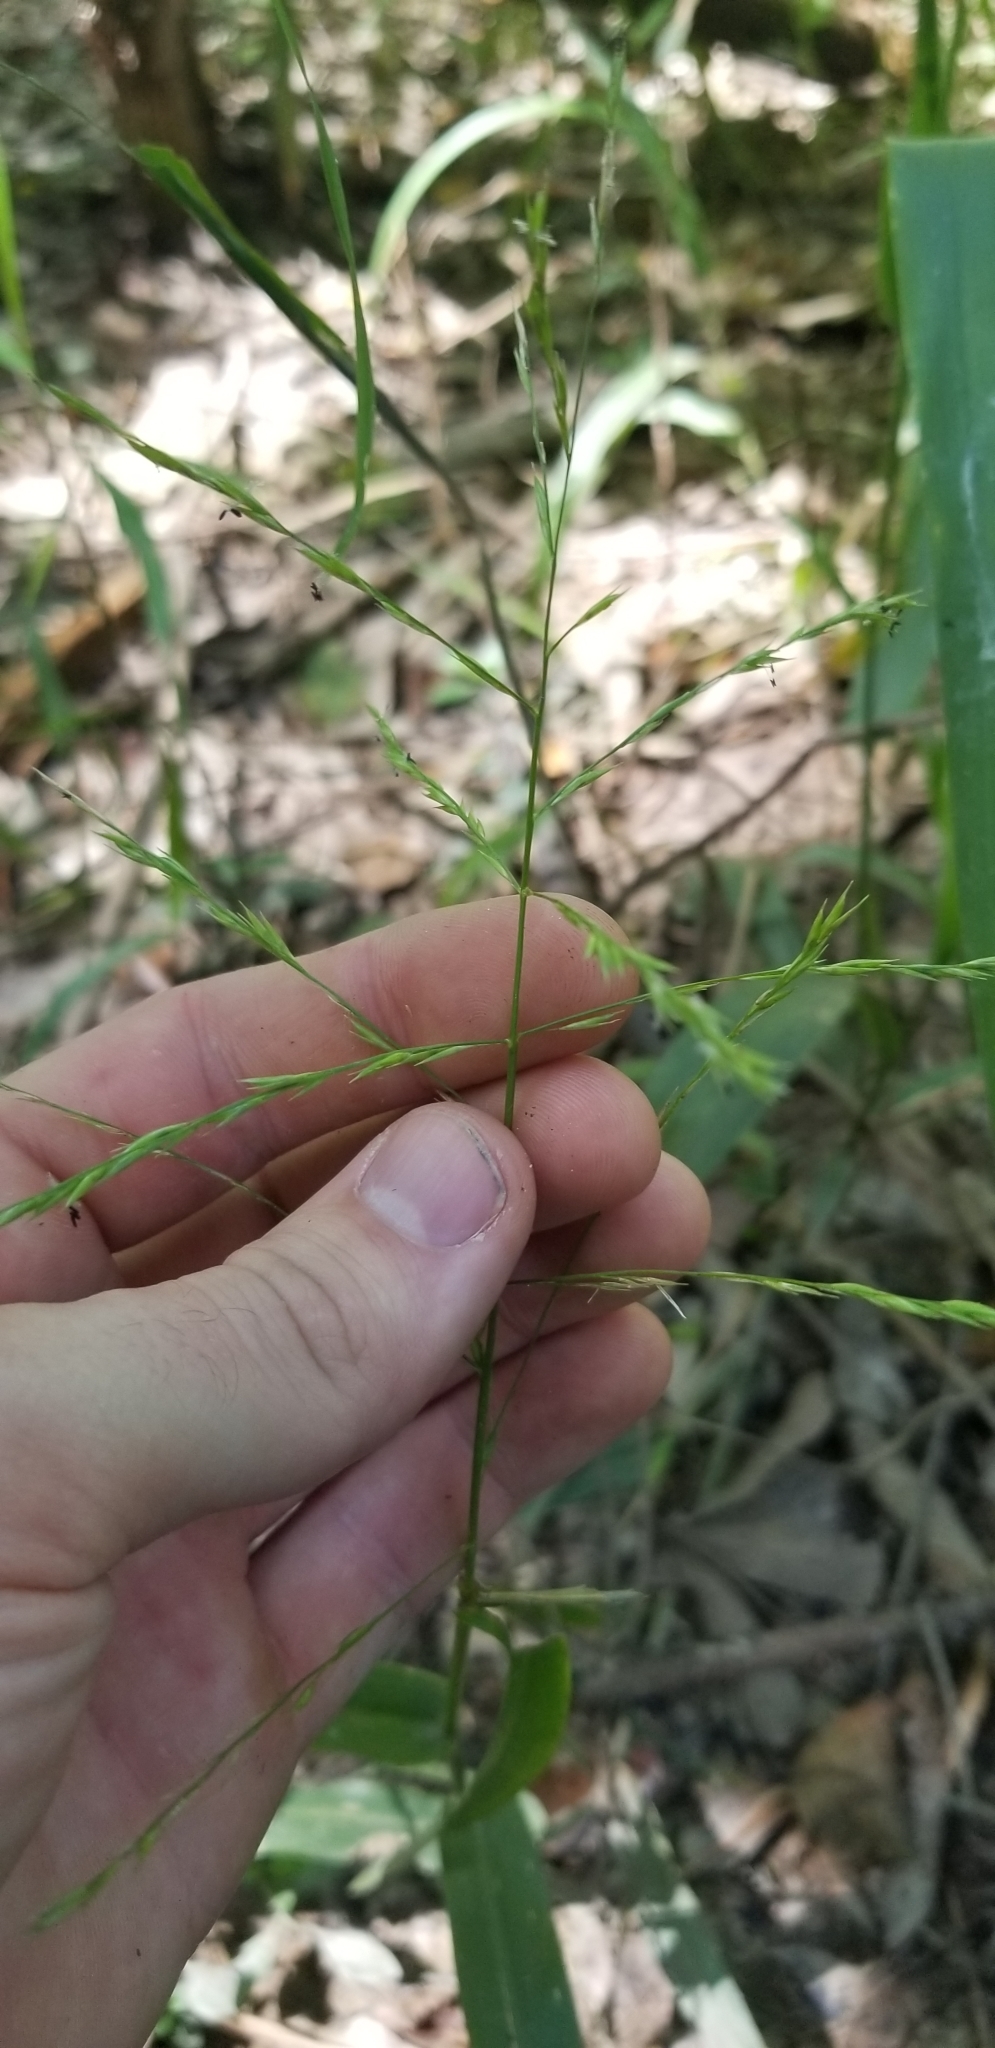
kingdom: Plantae
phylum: Tracheophyta
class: Liliopsida
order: Poales
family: Poaceae
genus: Panicum
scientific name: Panicum gymnocarpon
